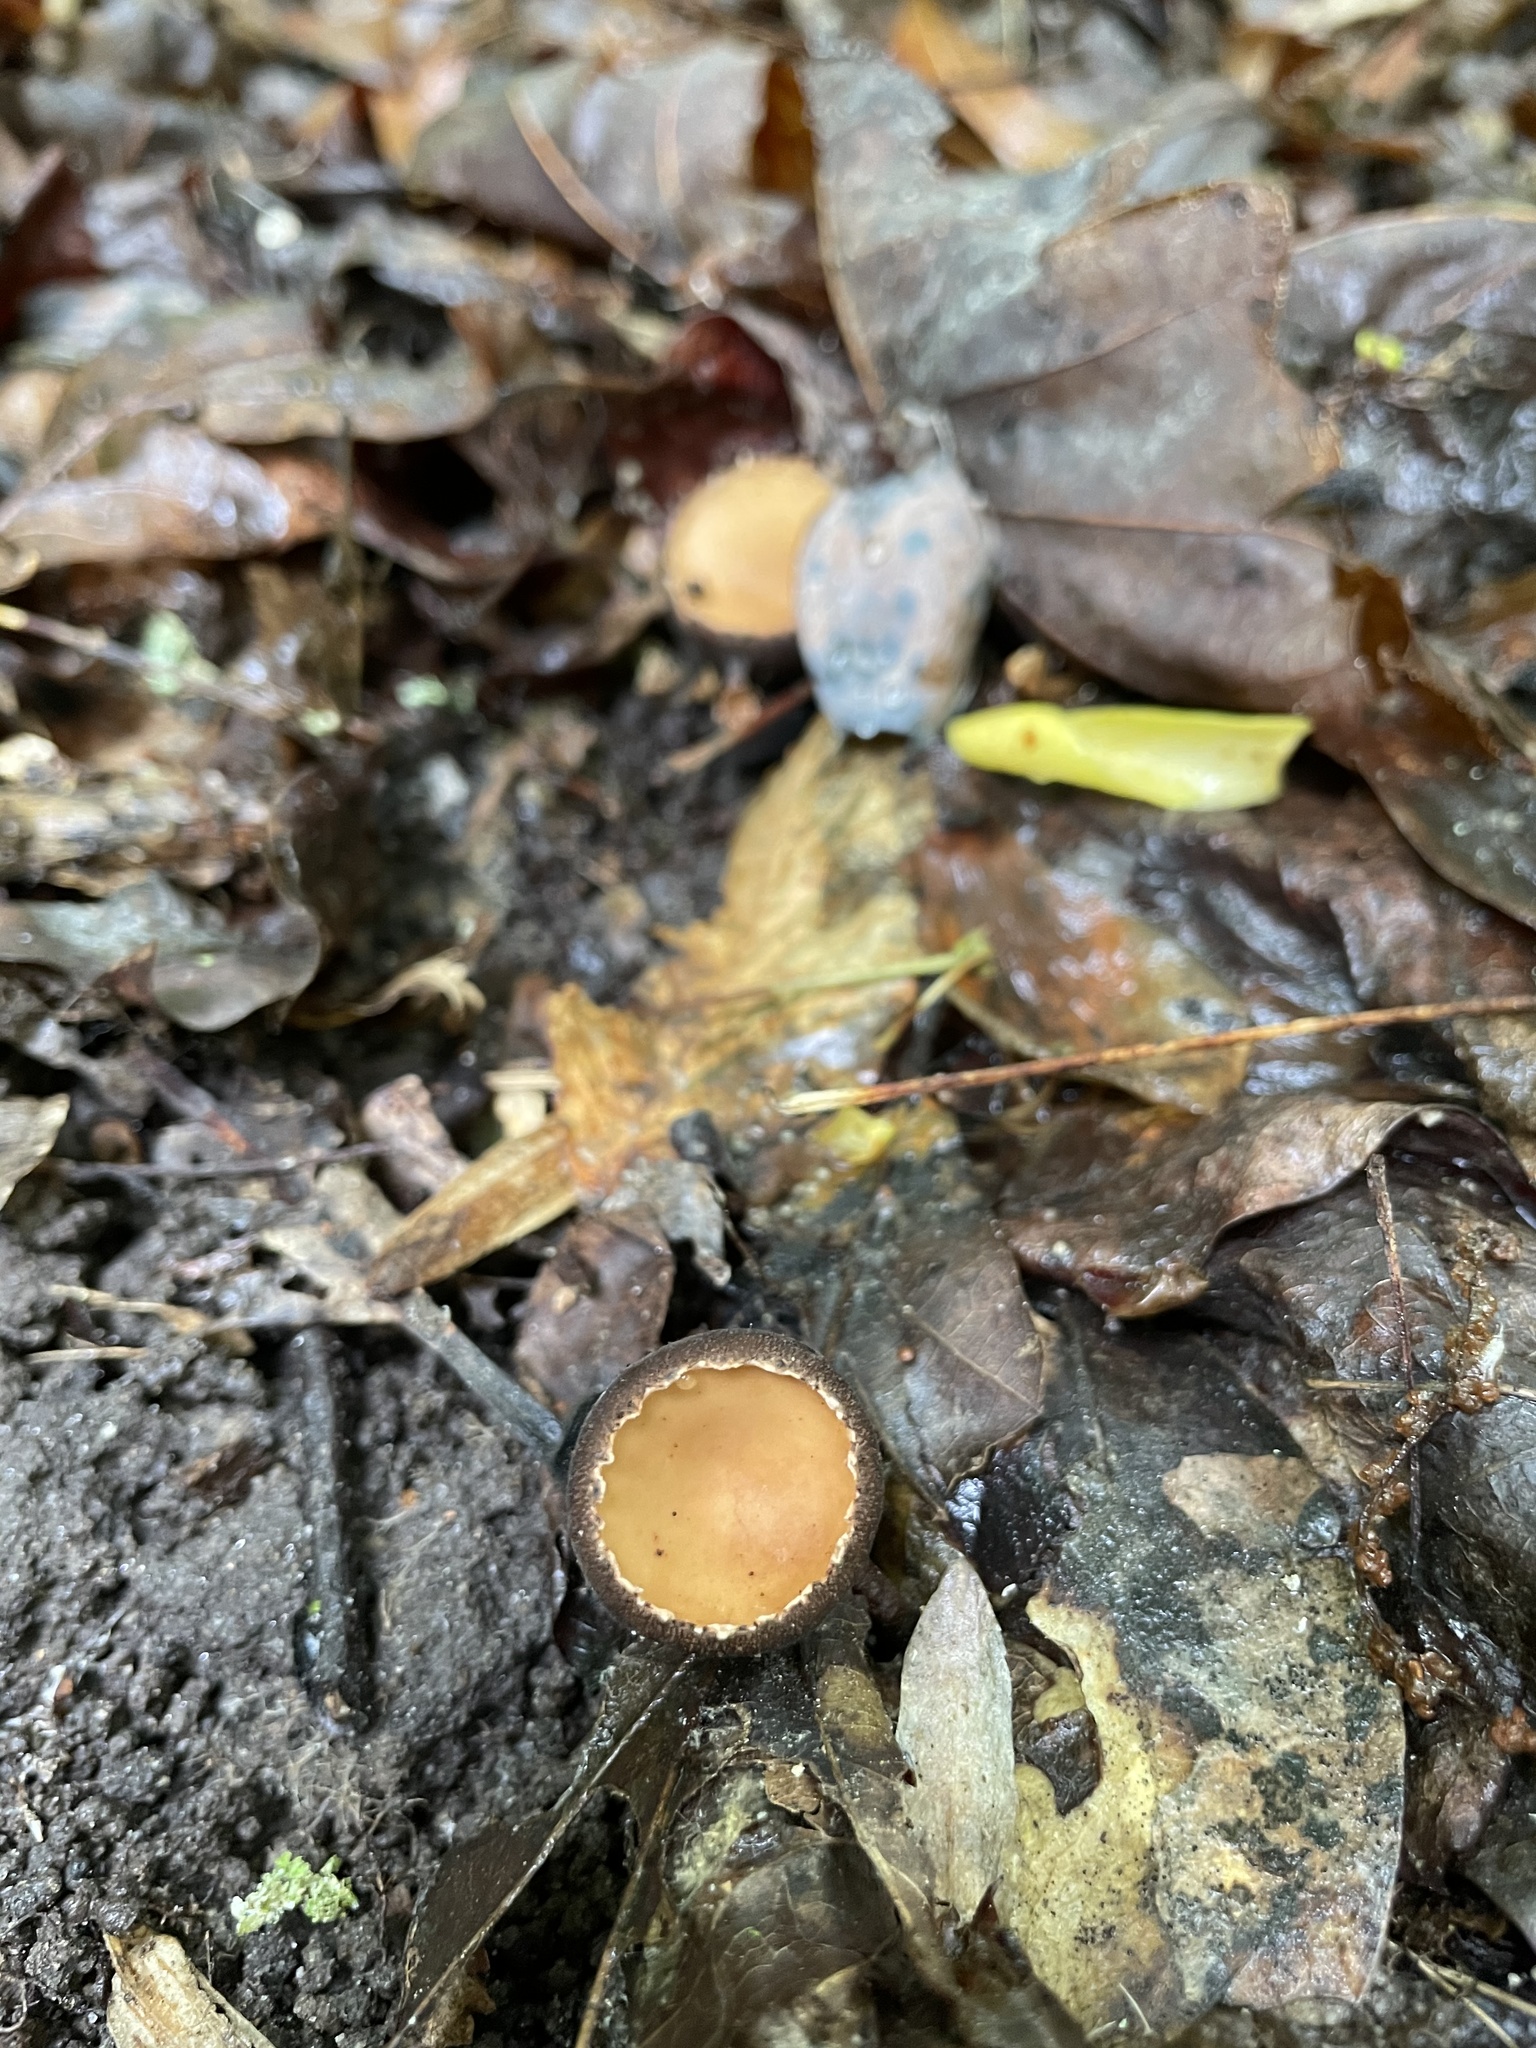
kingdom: Fungi
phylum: Ascomycota
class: Pezizomycetes
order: Pezizales
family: Sarcosomataceae
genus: Galiella
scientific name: Galiella rufa
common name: Hairy rubber cup
